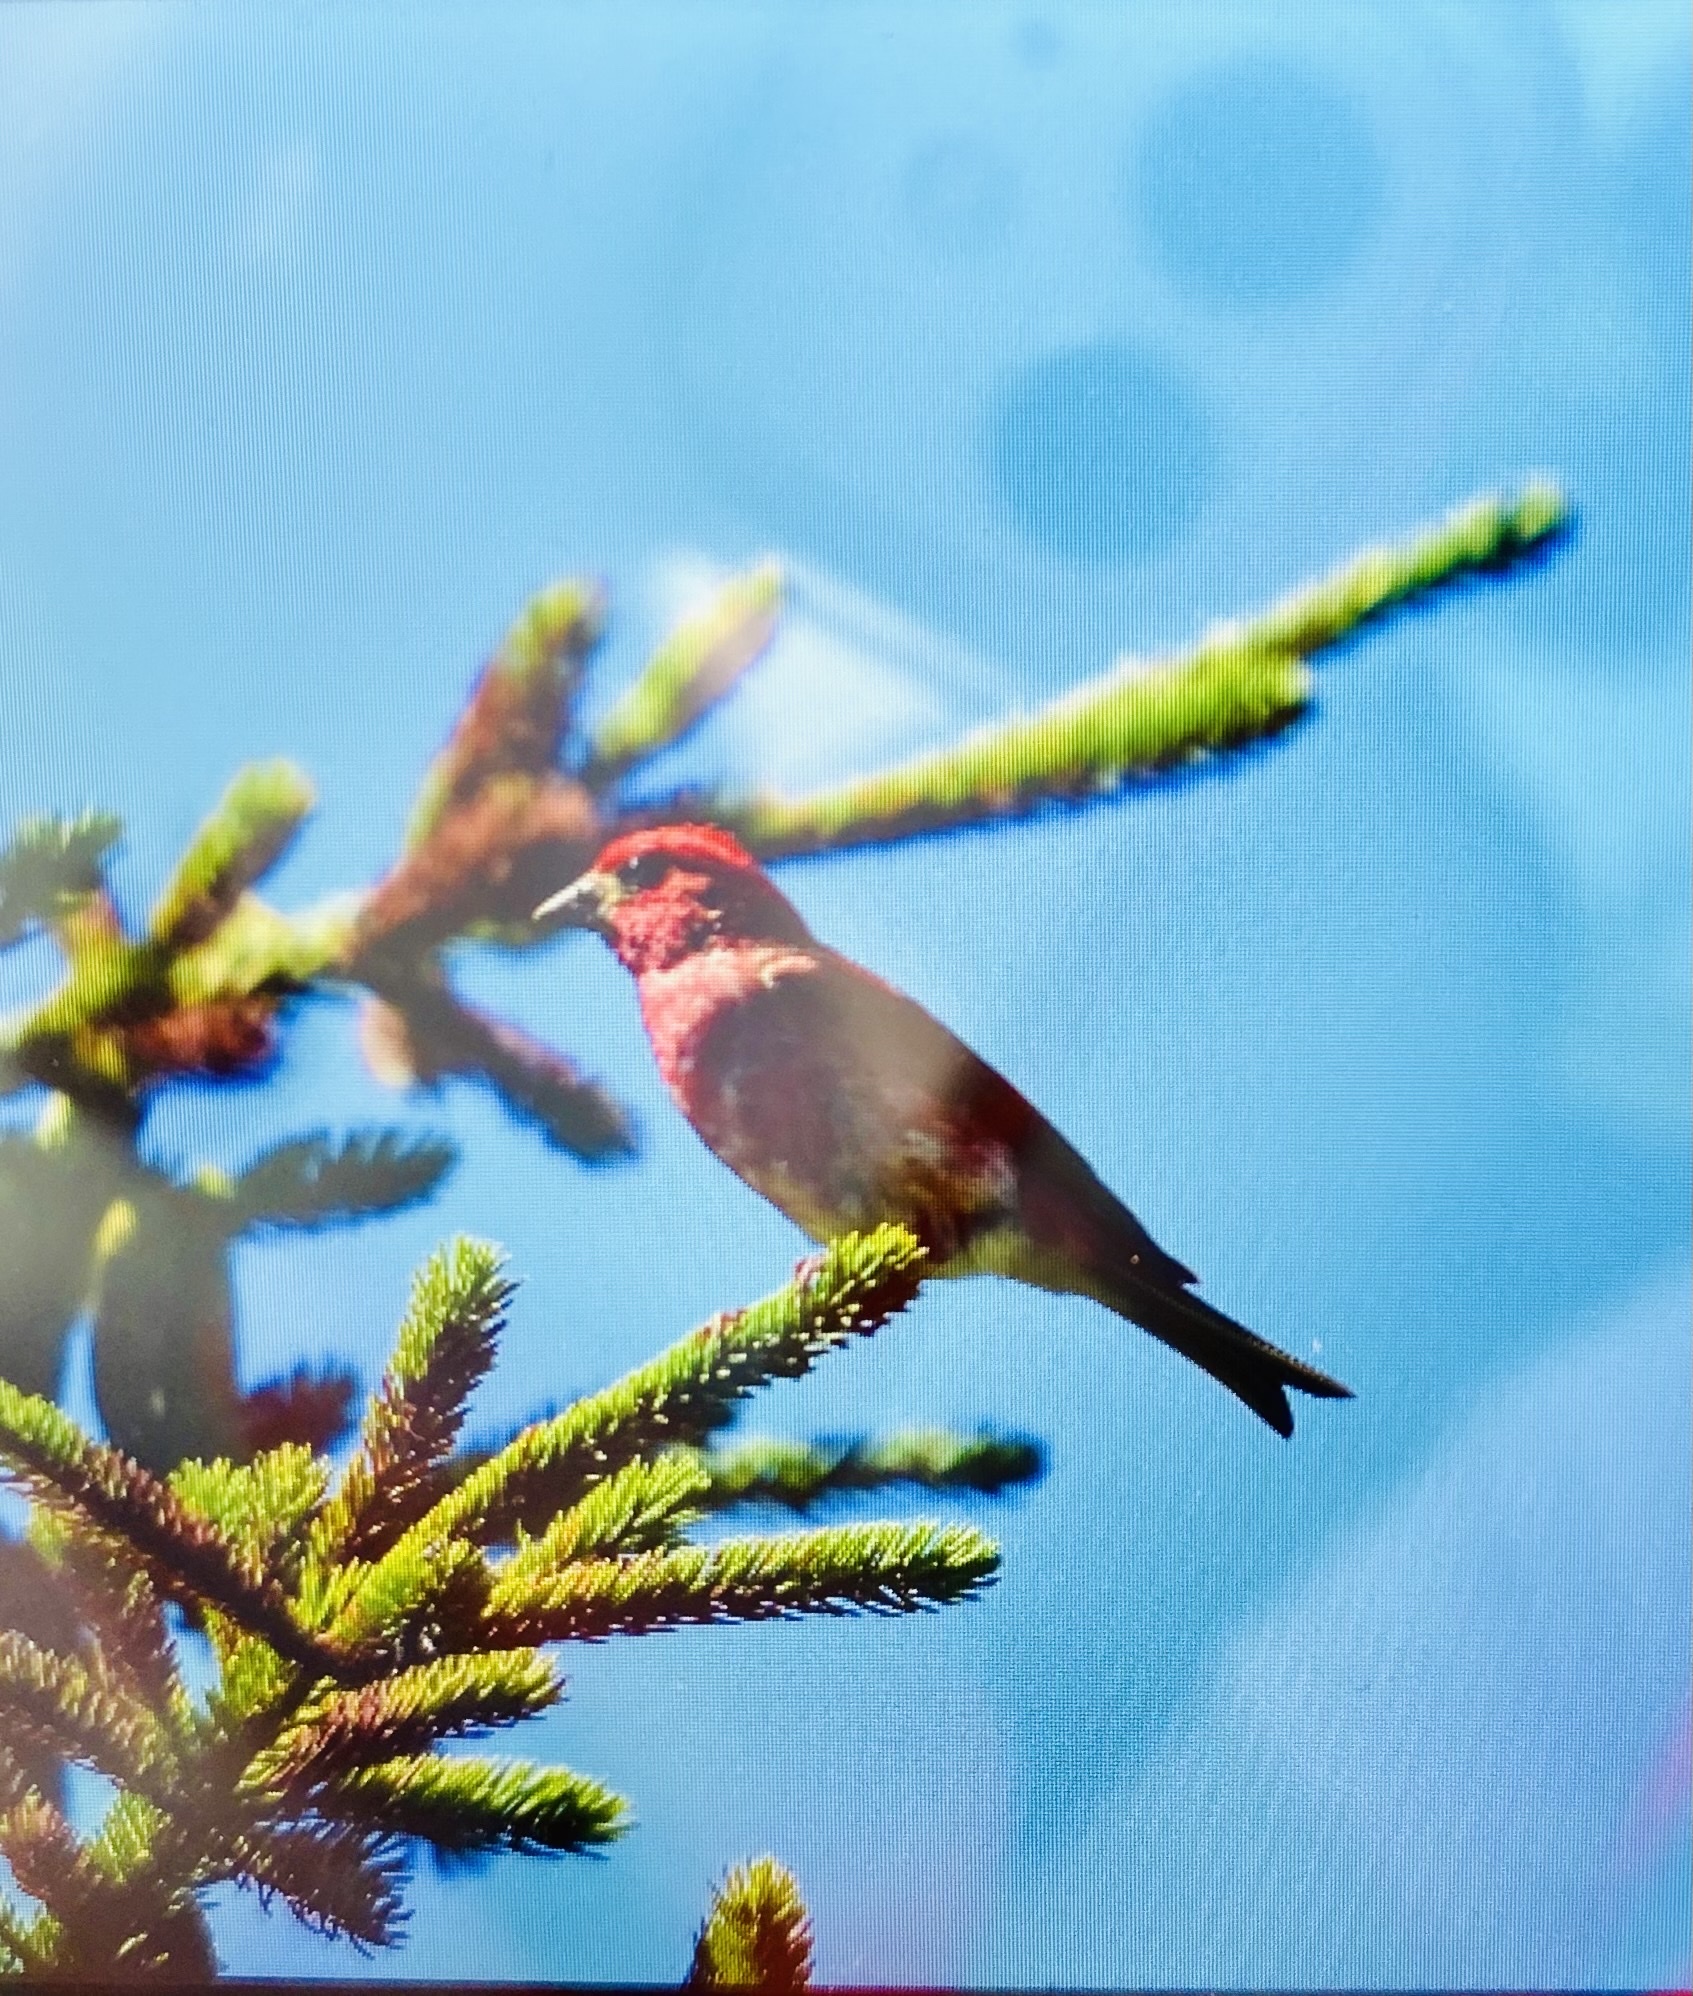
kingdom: Animalia
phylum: Chordata
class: Aves
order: Passeriformes
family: Fringillidae
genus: Haemorhous
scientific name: Haemorhous purpureus
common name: Purple finch
